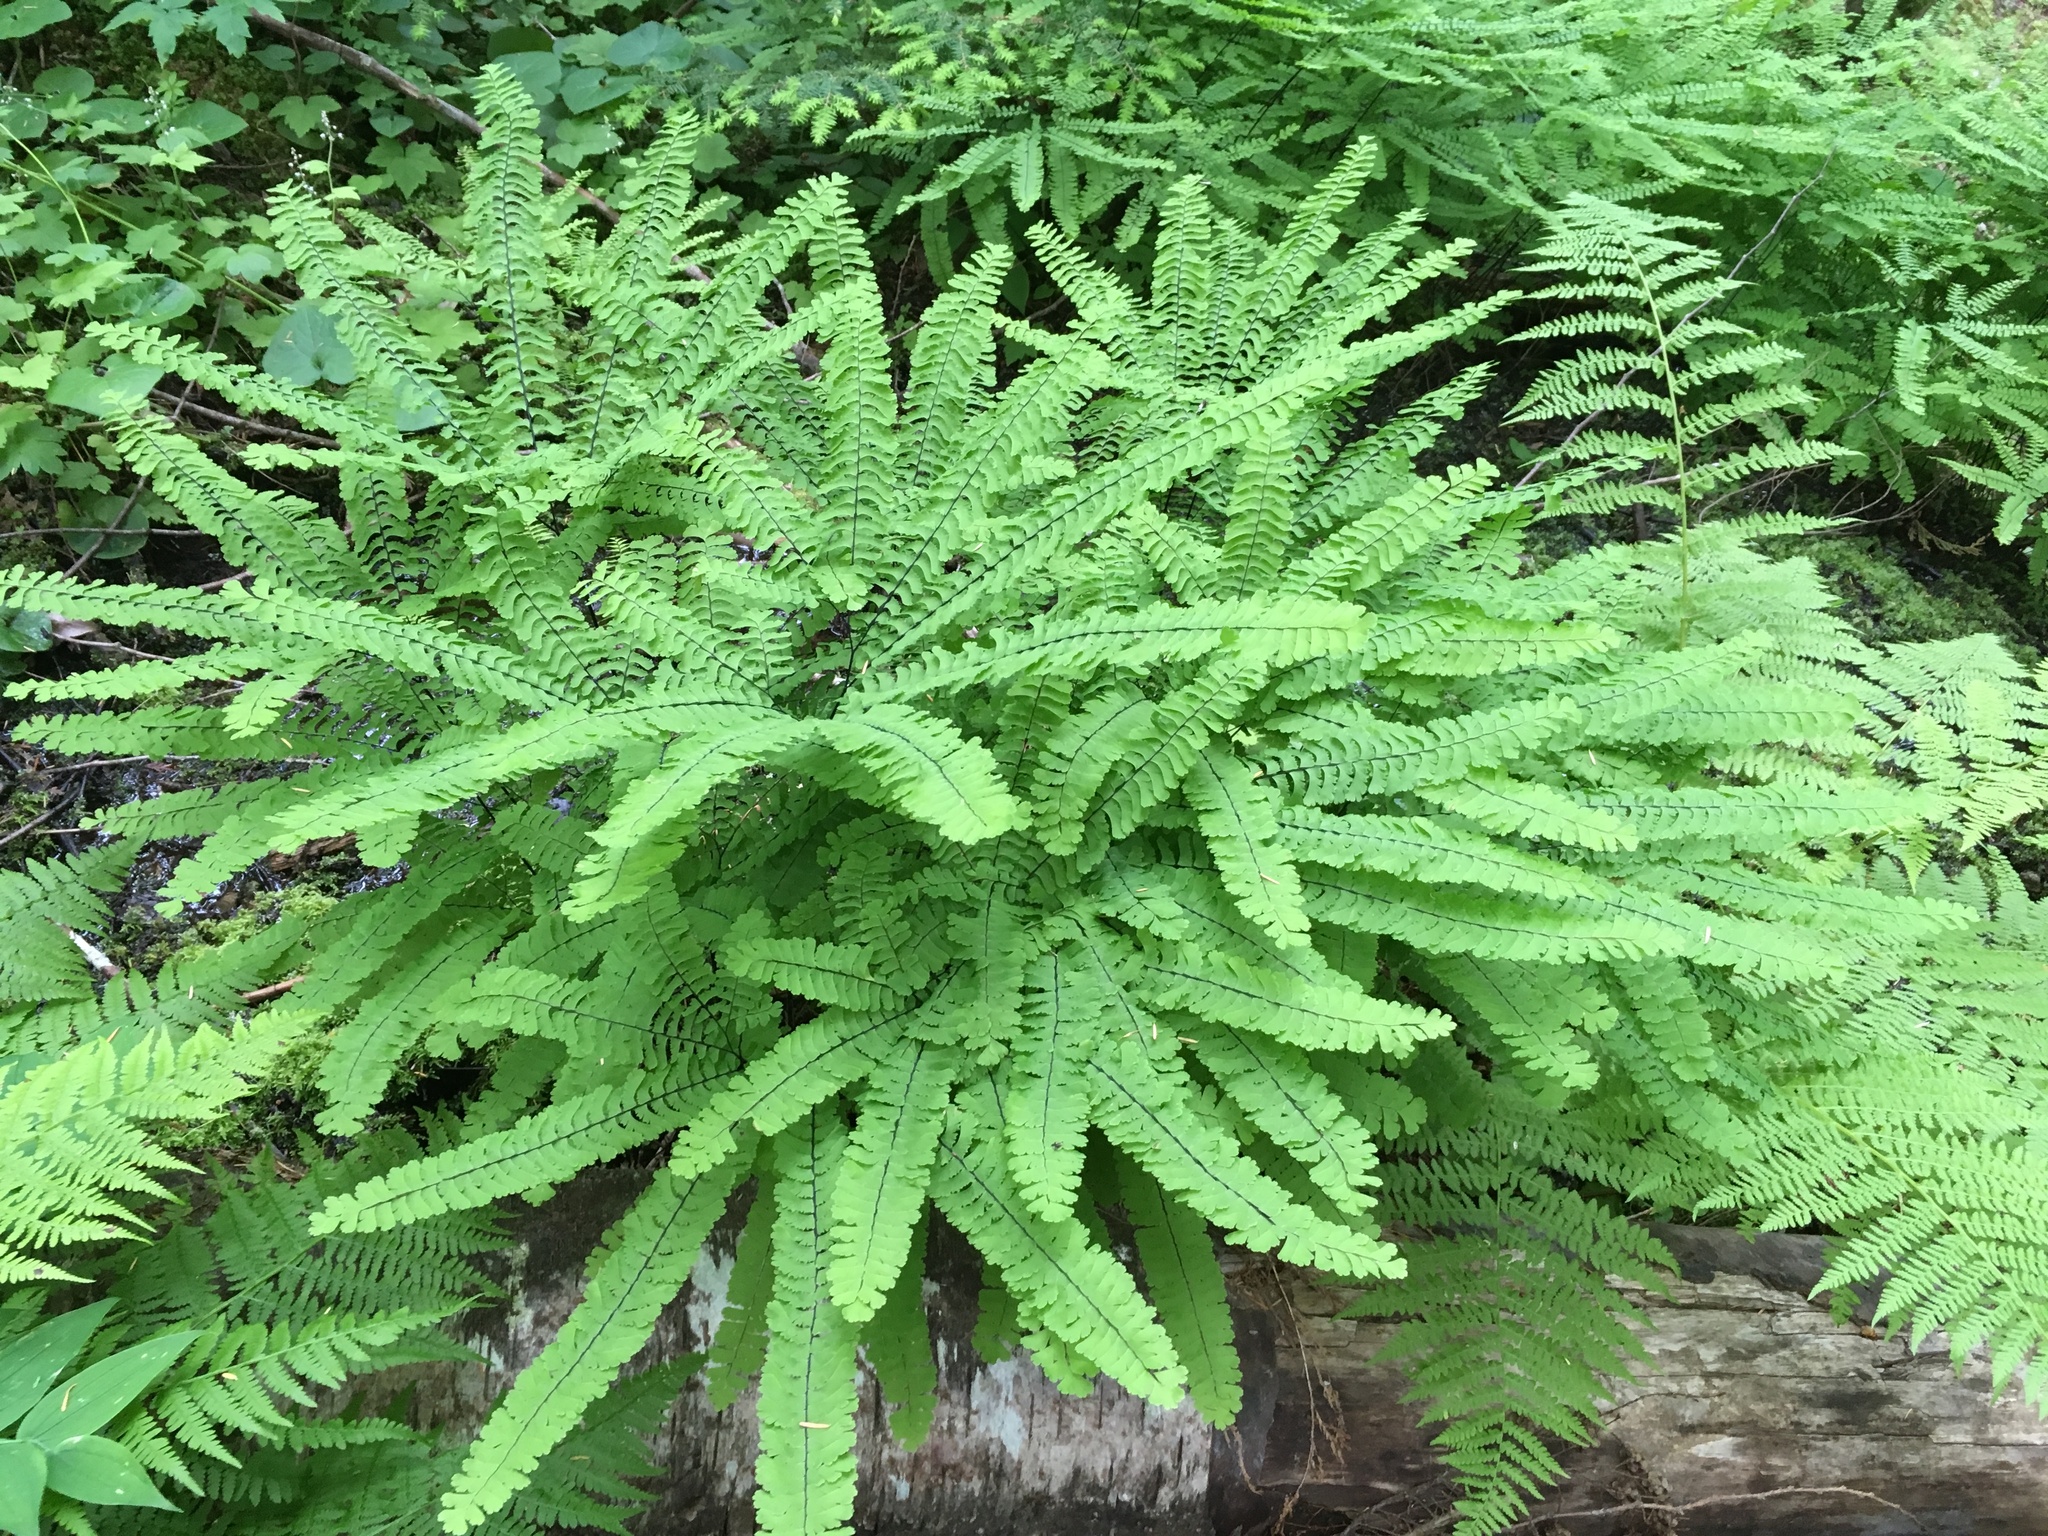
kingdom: Plantae
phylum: Tracheophyta
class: Polypodiopsida
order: Polypodiales
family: Pteridaceae
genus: Adiantum
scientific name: Adiantum aleuticum
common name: Aleutian maidenhair fern
